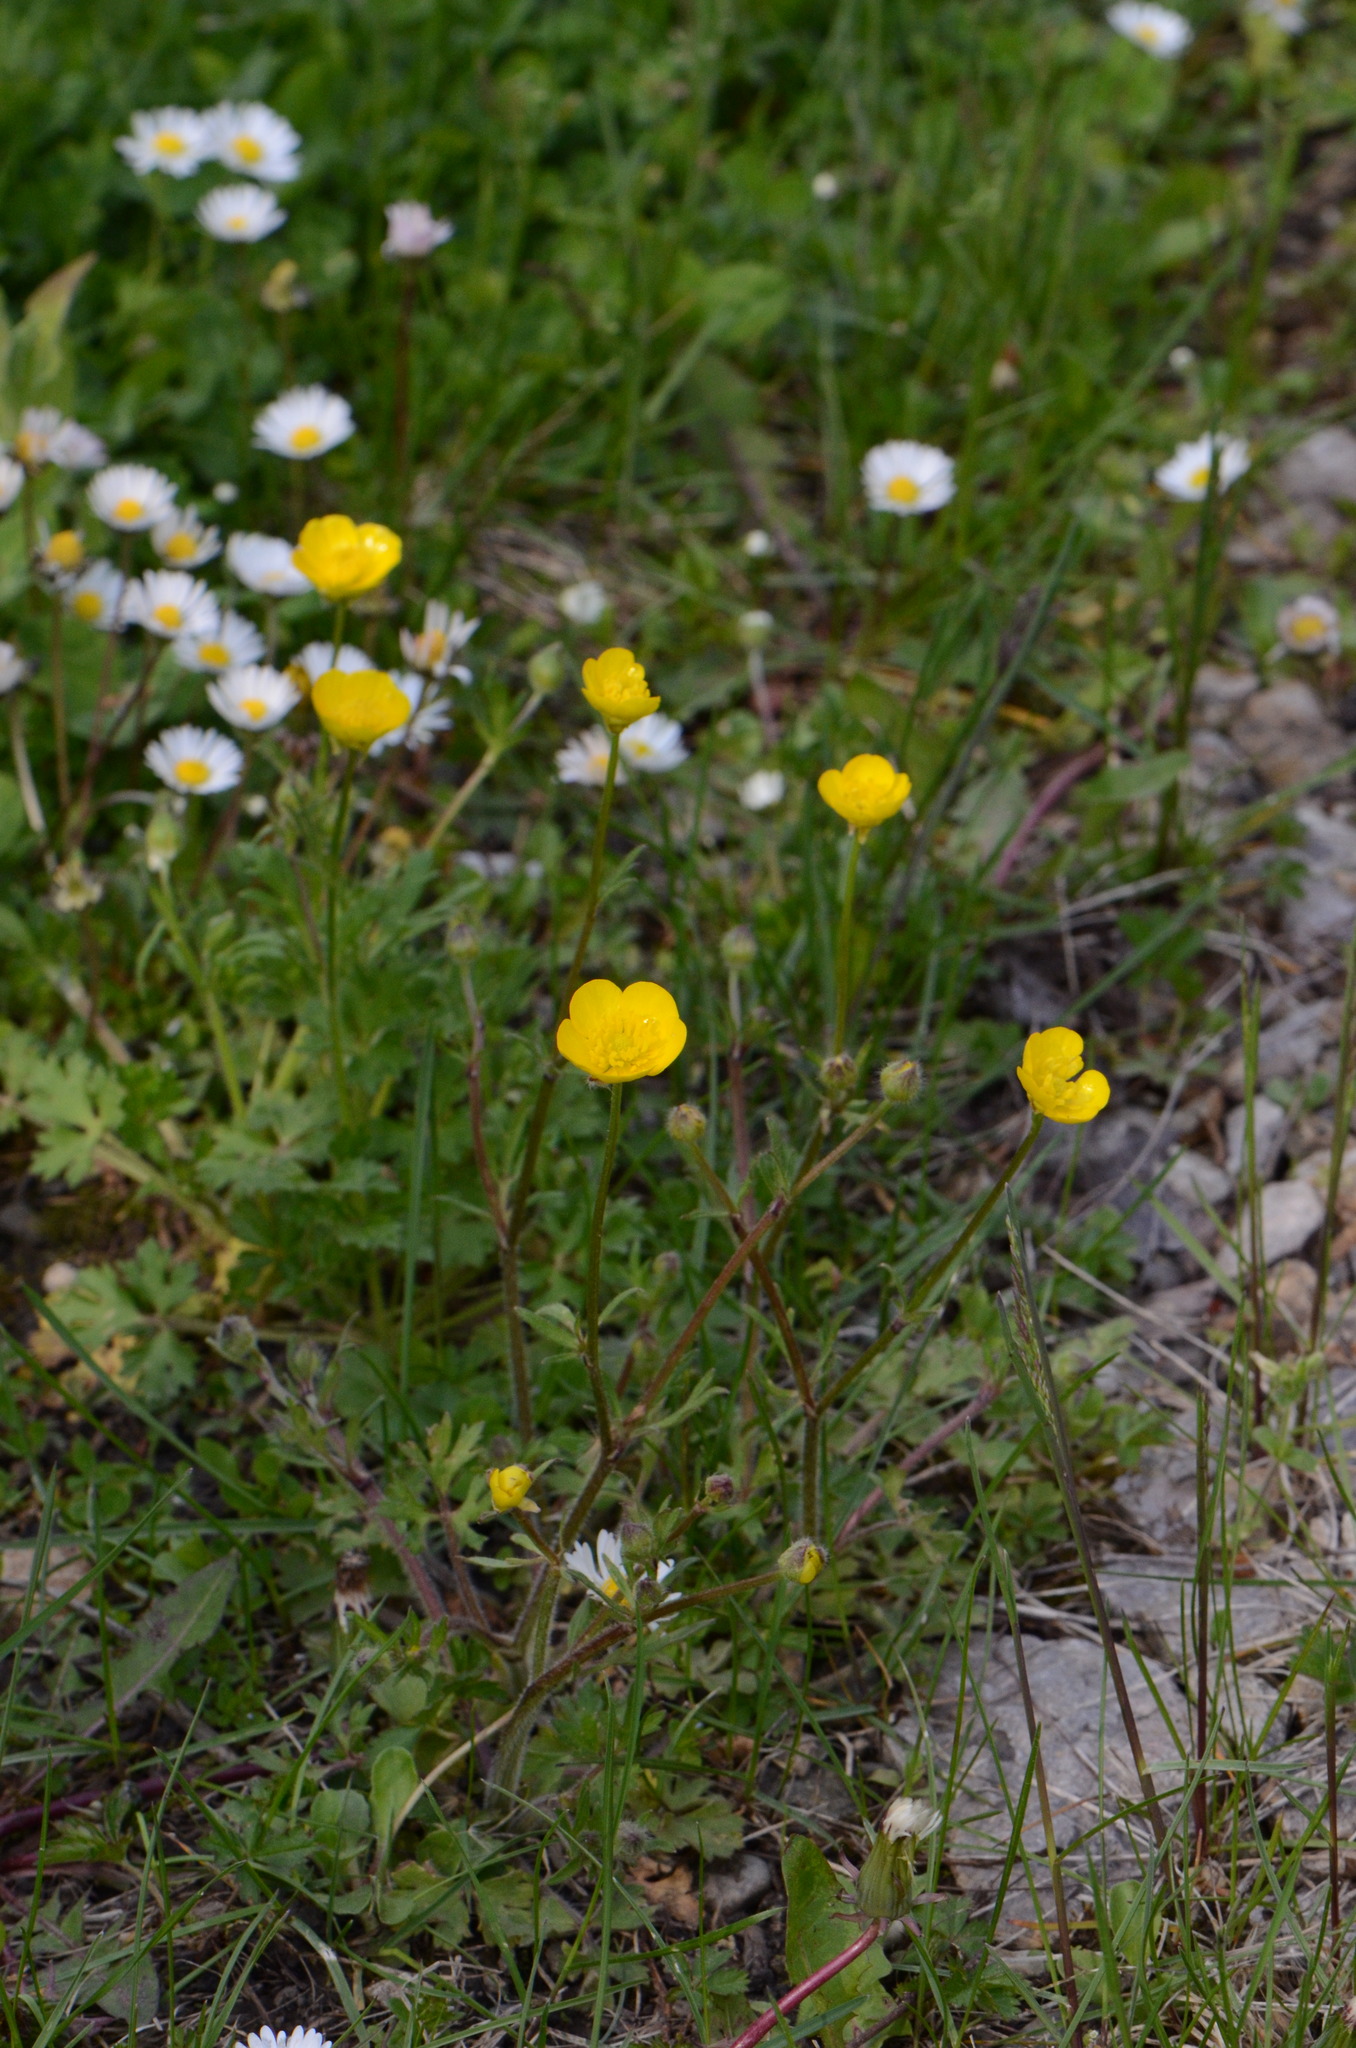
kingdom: Plantae
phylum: Tracheophyta
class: Magnoliopsida
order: Ranunculales
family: Ranunculaceae
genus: Ranunculus
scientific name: Ranunculus bulbosus
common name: Bulbous buttercup
